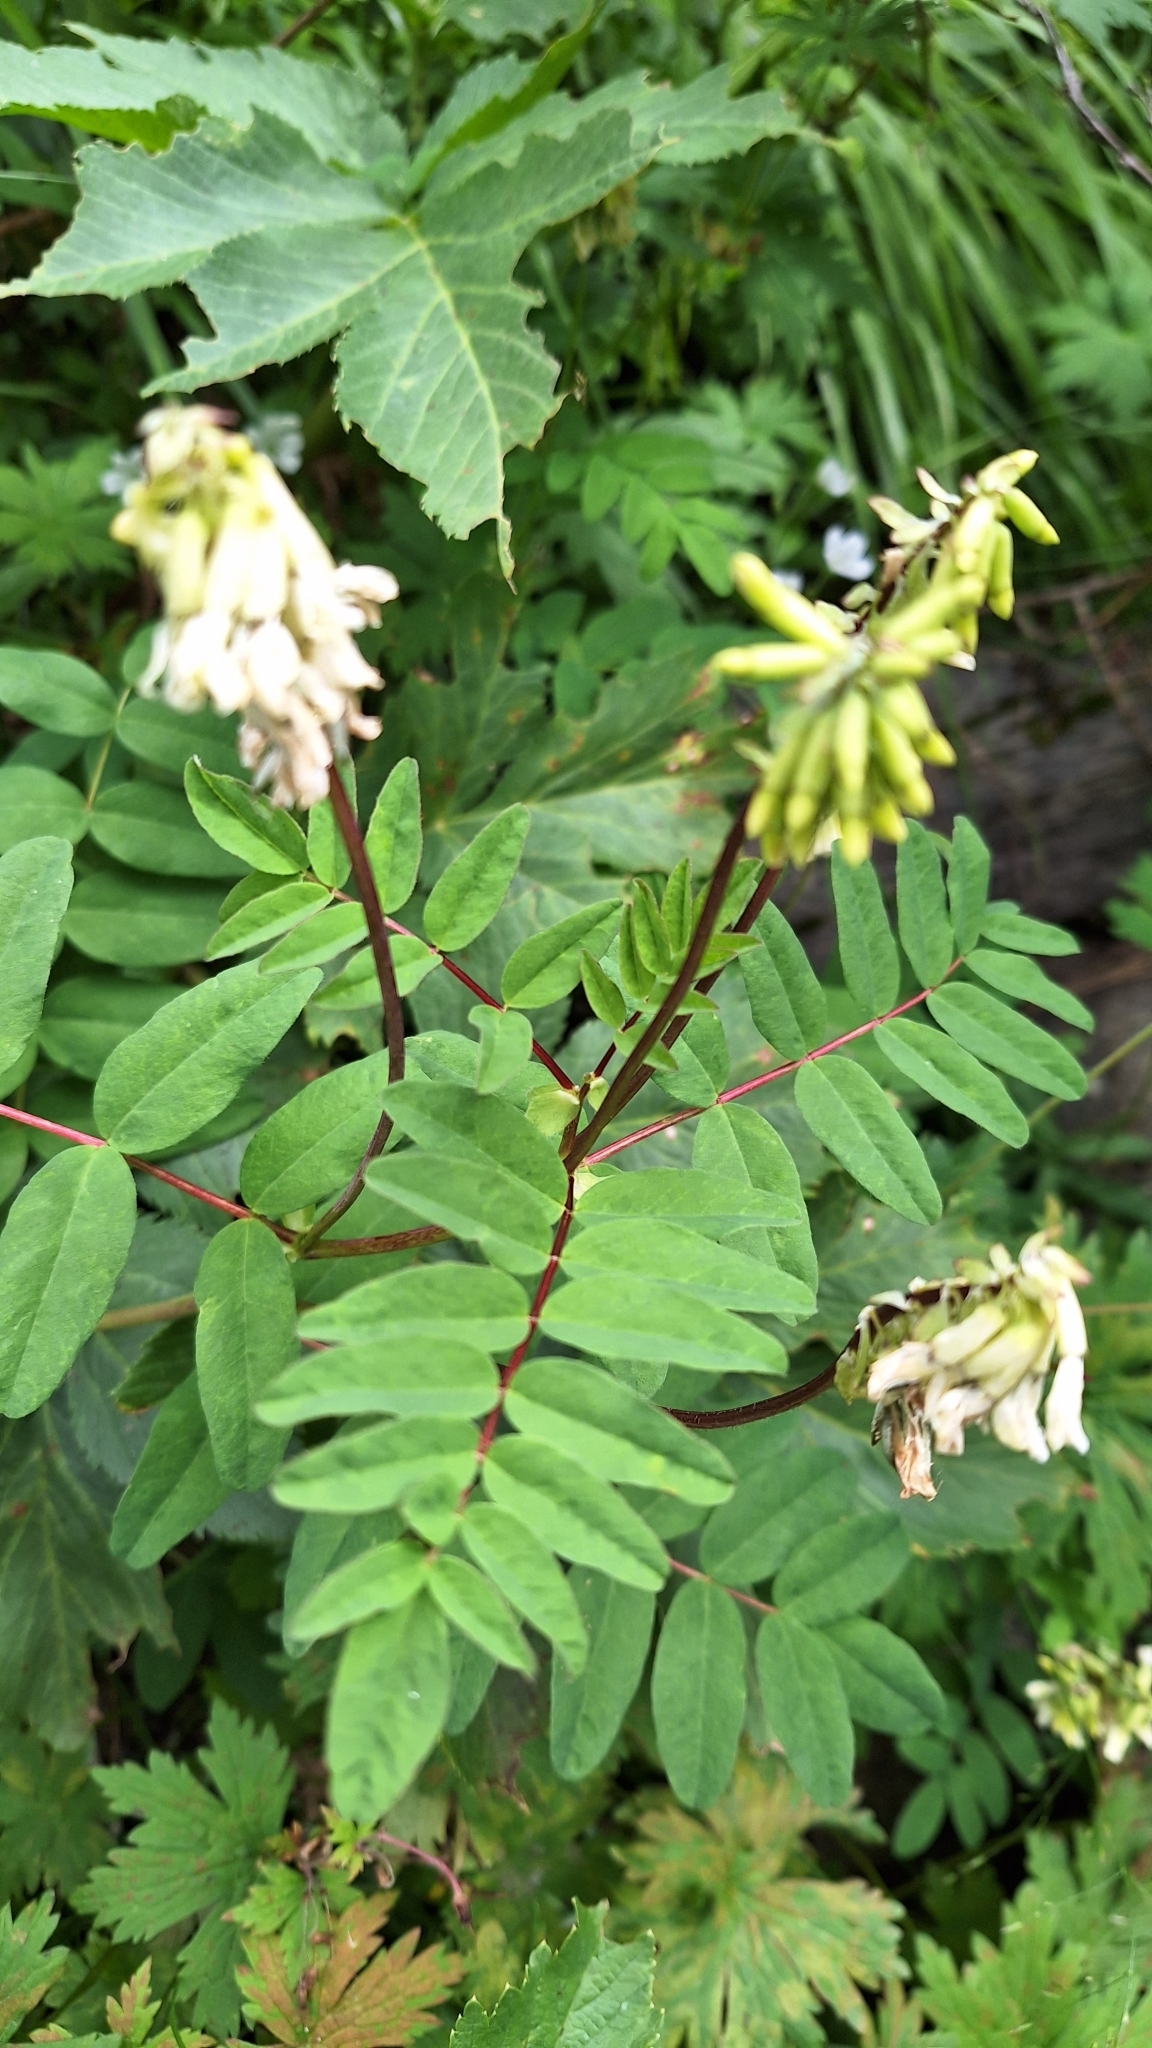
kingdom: Plantae
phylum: Tracheophyta
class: Magnoliopsida
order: Fabales
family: Fabaceae
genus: Astragalus
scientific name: Astragalus frigidus
